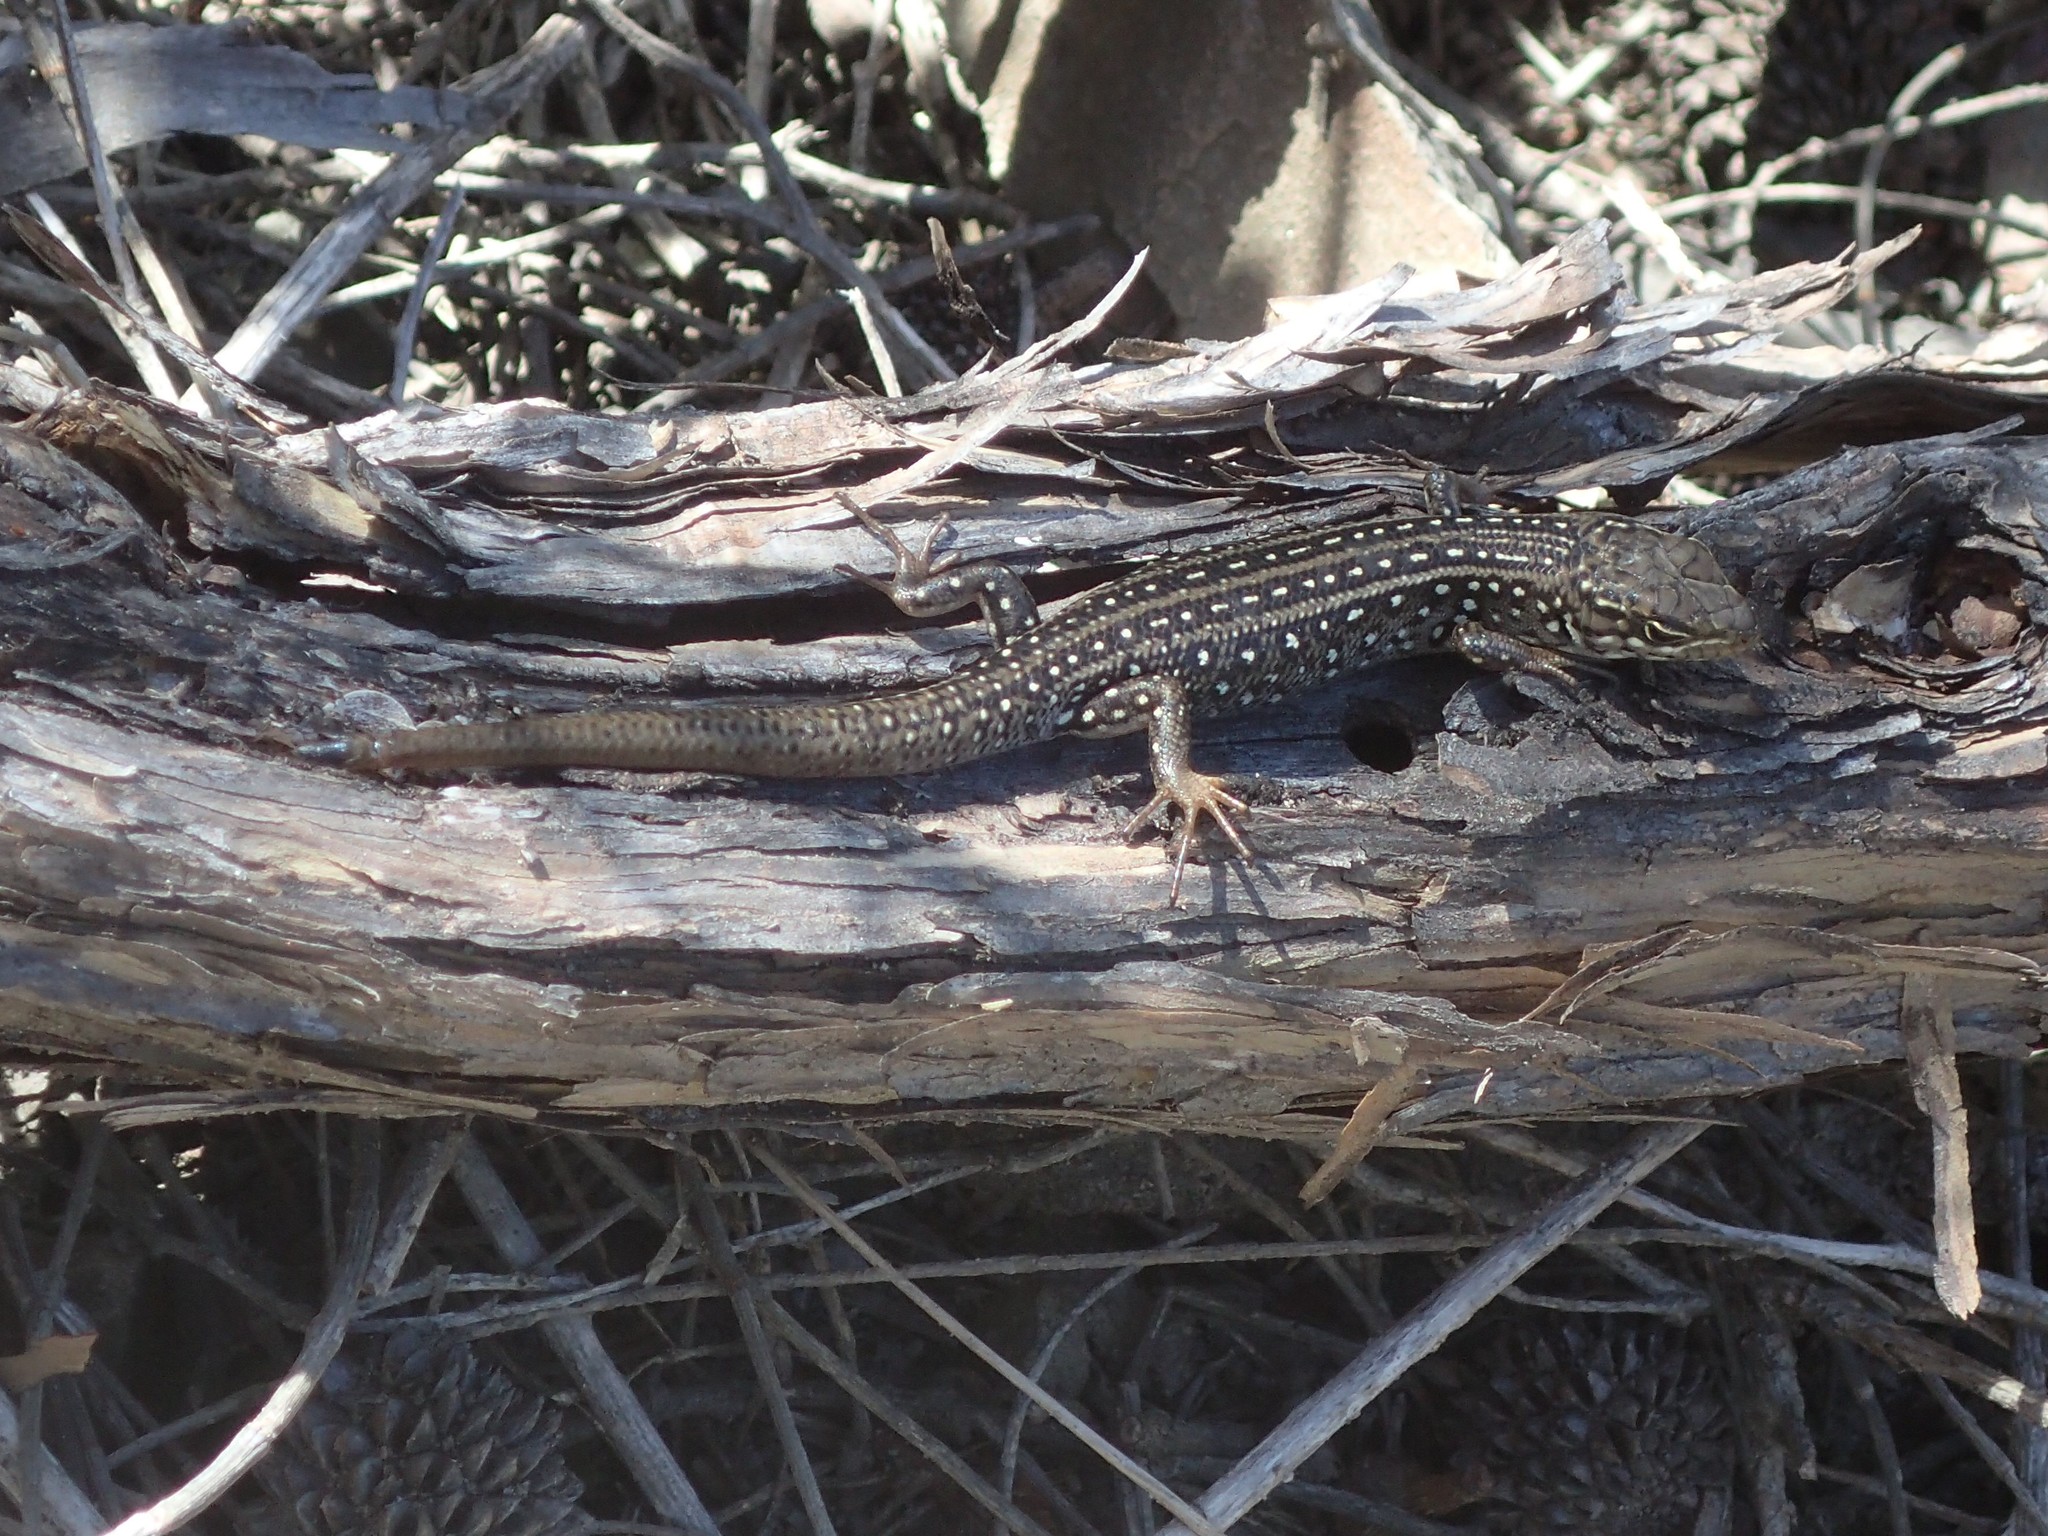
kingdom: Animalia
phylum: Chordata
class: Squamata
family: Scincidae
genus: Liopholis
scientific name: Liopholis whitii
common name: White's rock-skink
